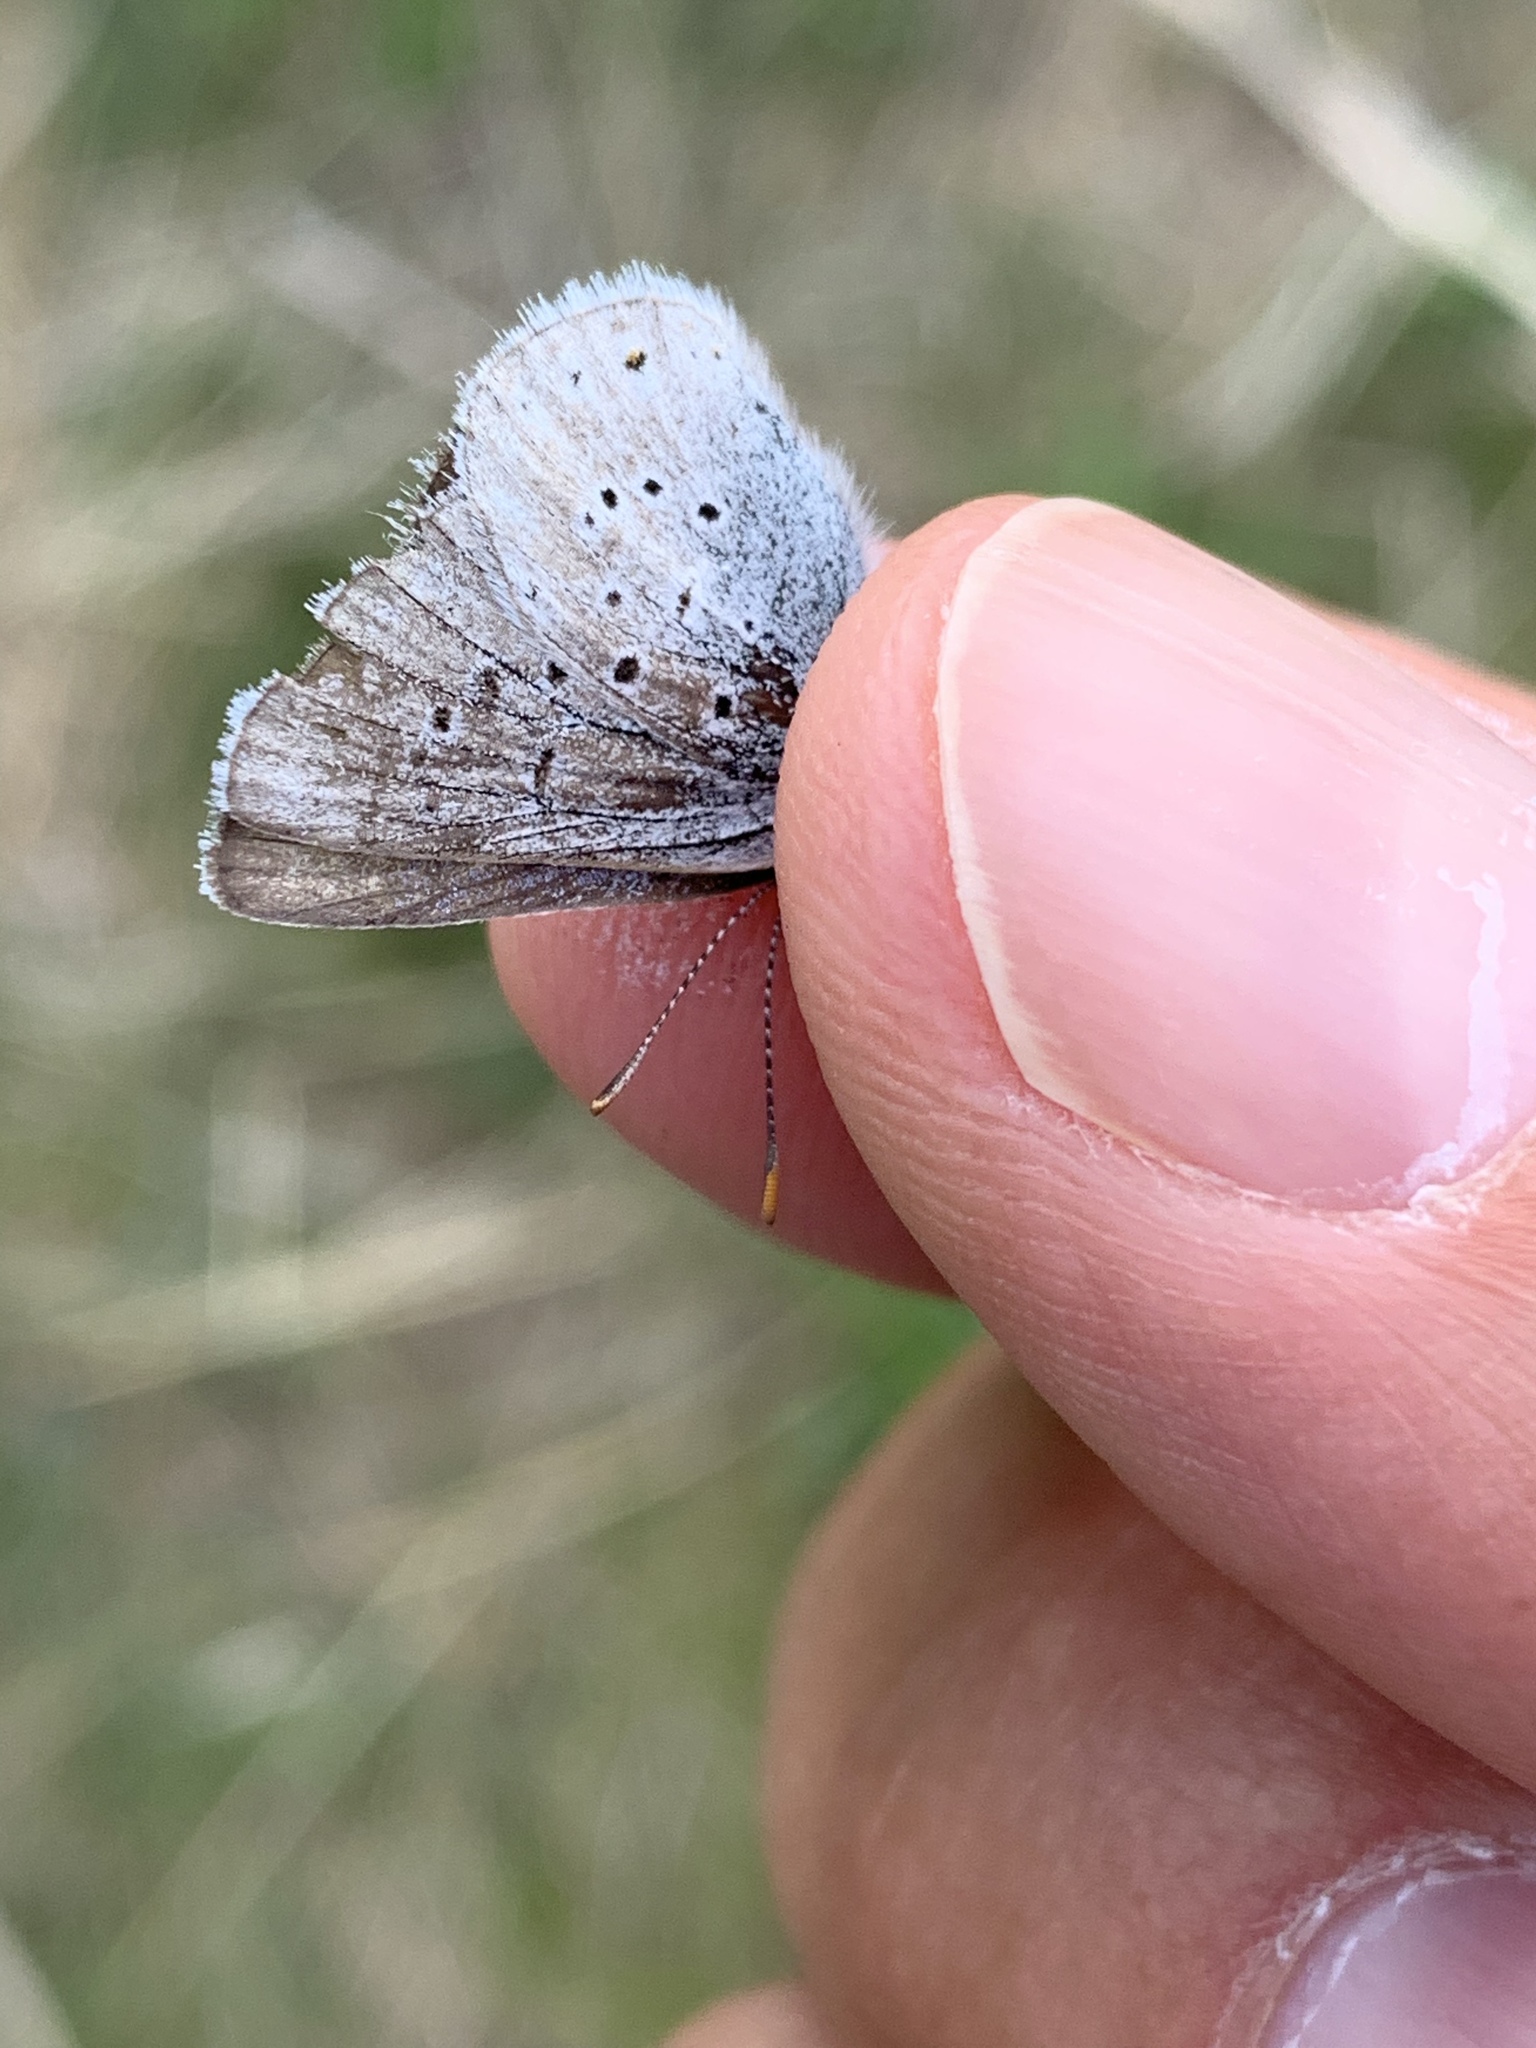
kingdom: Animalia
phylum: Arthropoda
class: Insecta
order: Lepidoptera
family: Lycaenidae
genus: Icaricia
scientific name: Icaricia saepiolus
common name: Greenish blue
